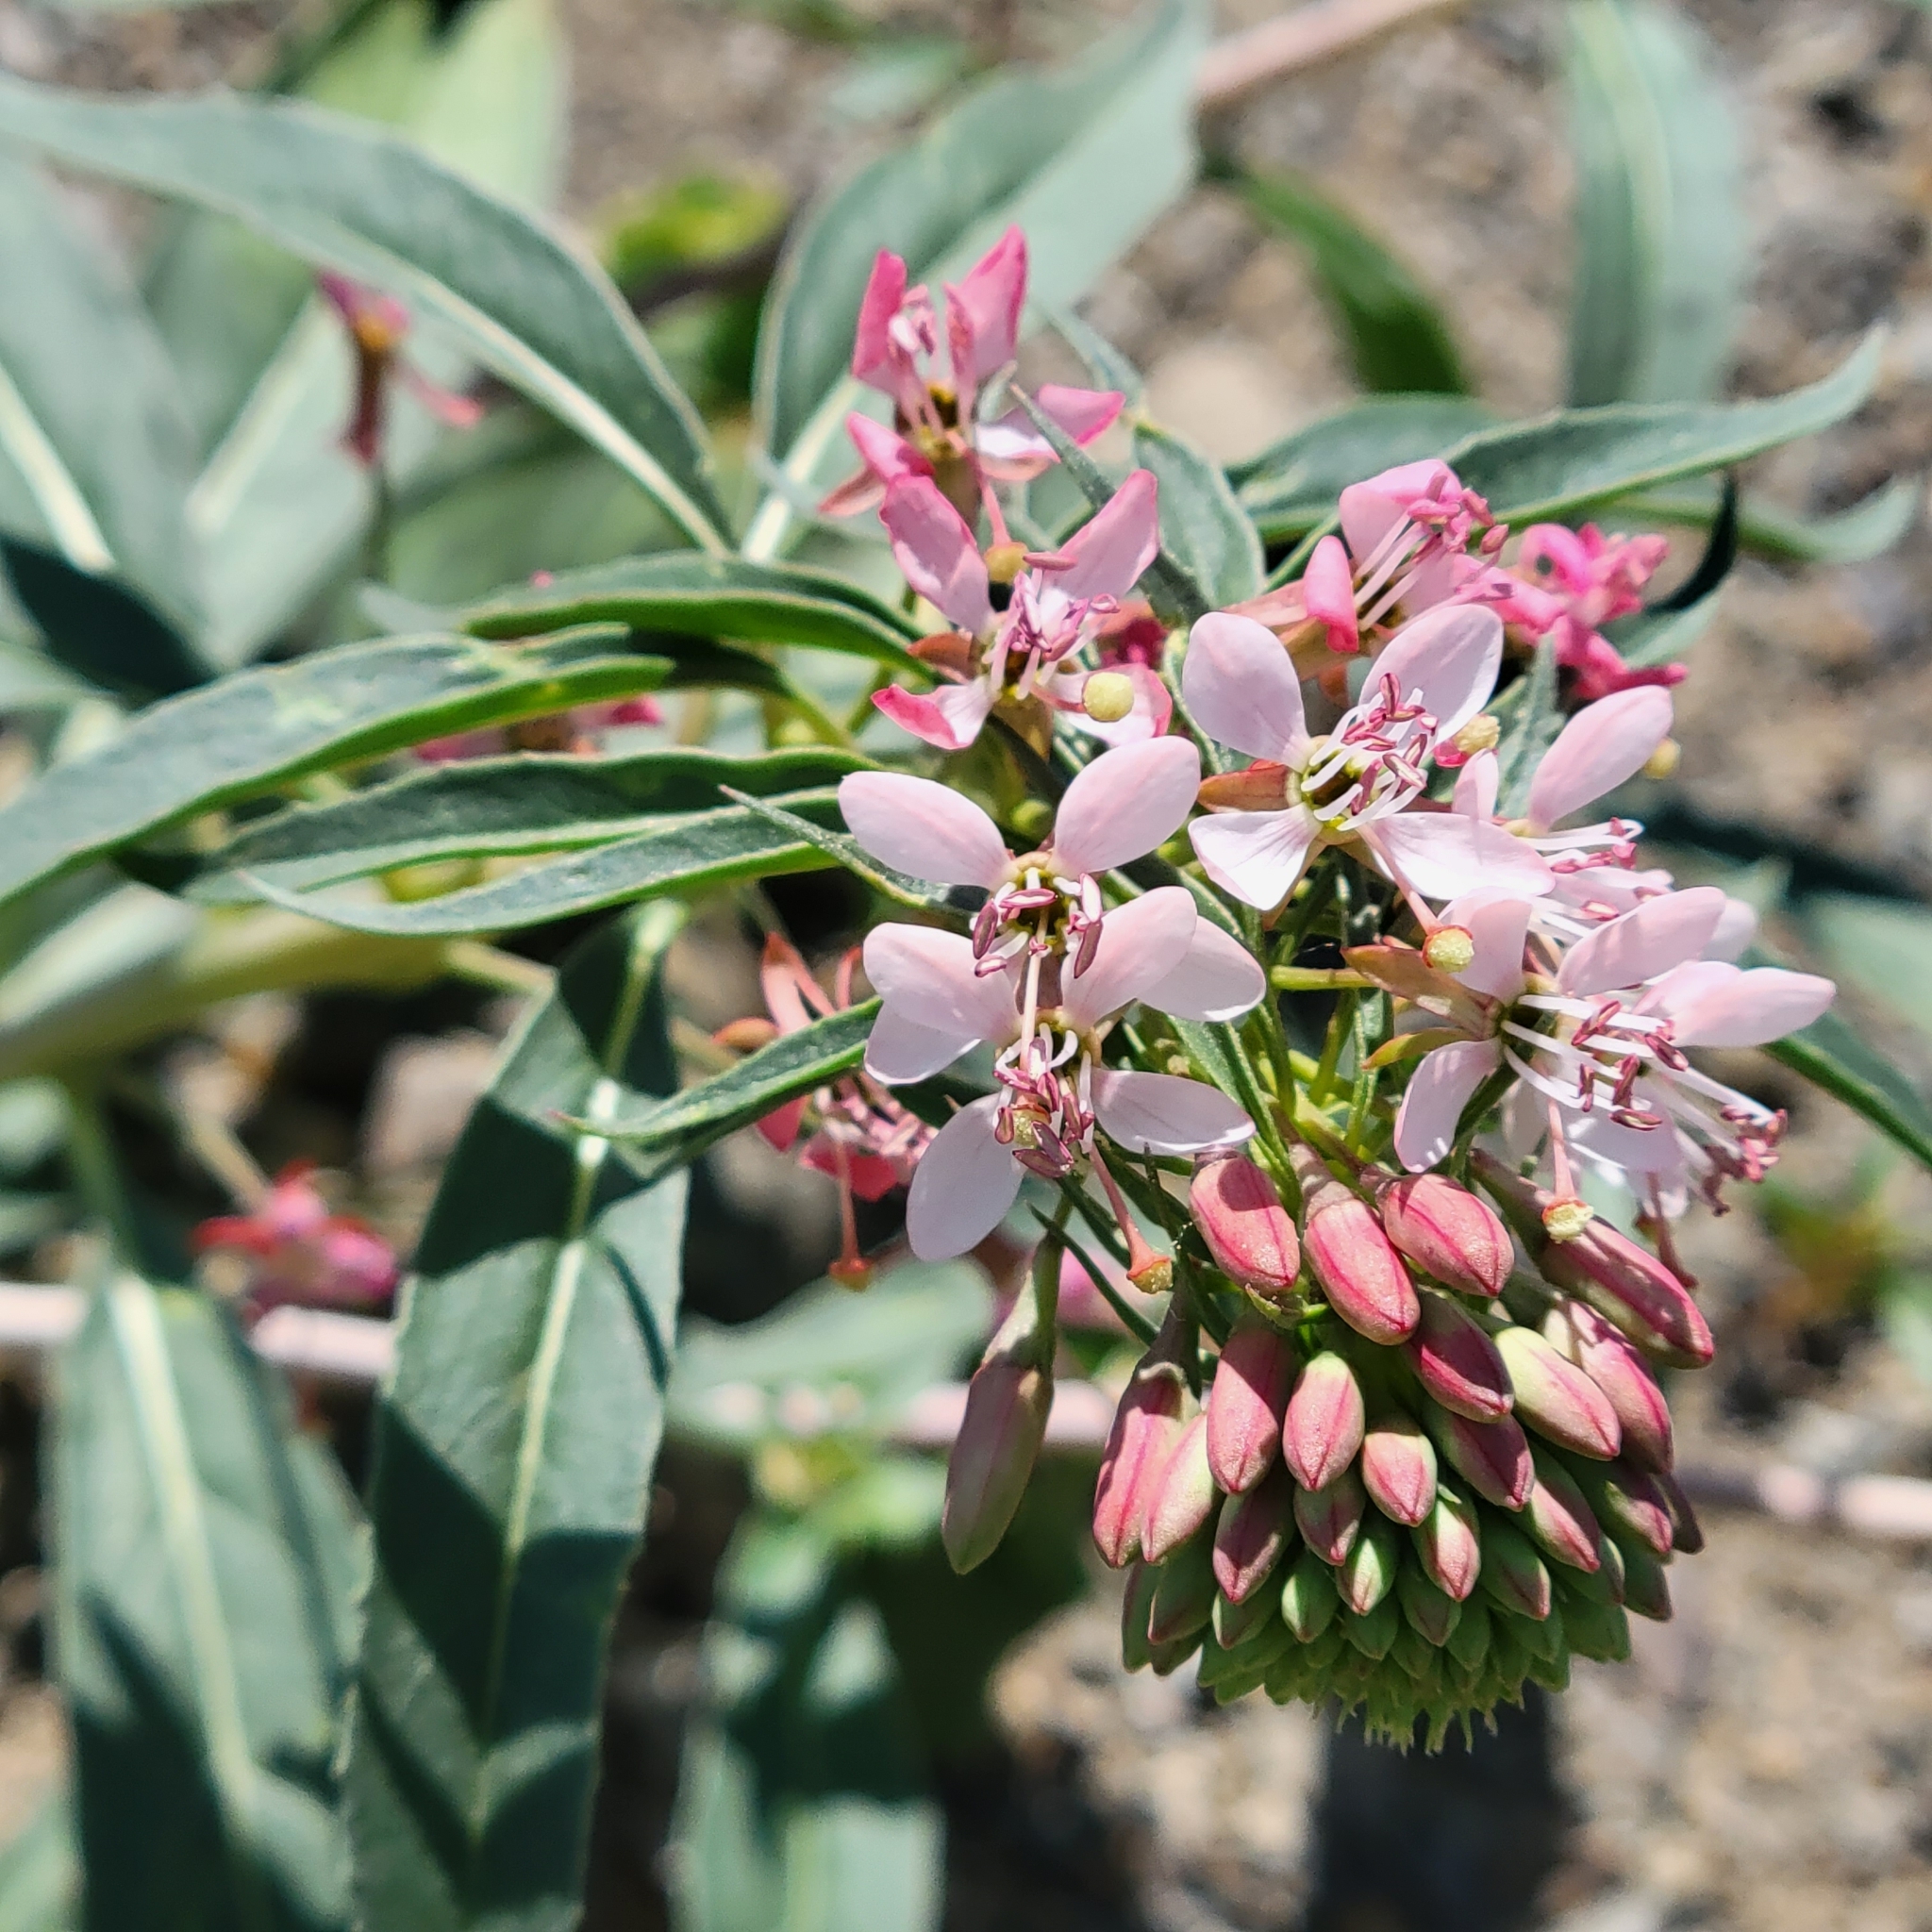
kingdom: Plantae
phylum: Tracheophyta
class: Magnoliopsida
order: Myrtales
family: Onagraceae
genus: Eremothera
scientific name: Eremothera boothii
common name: Booth's evening primrose
